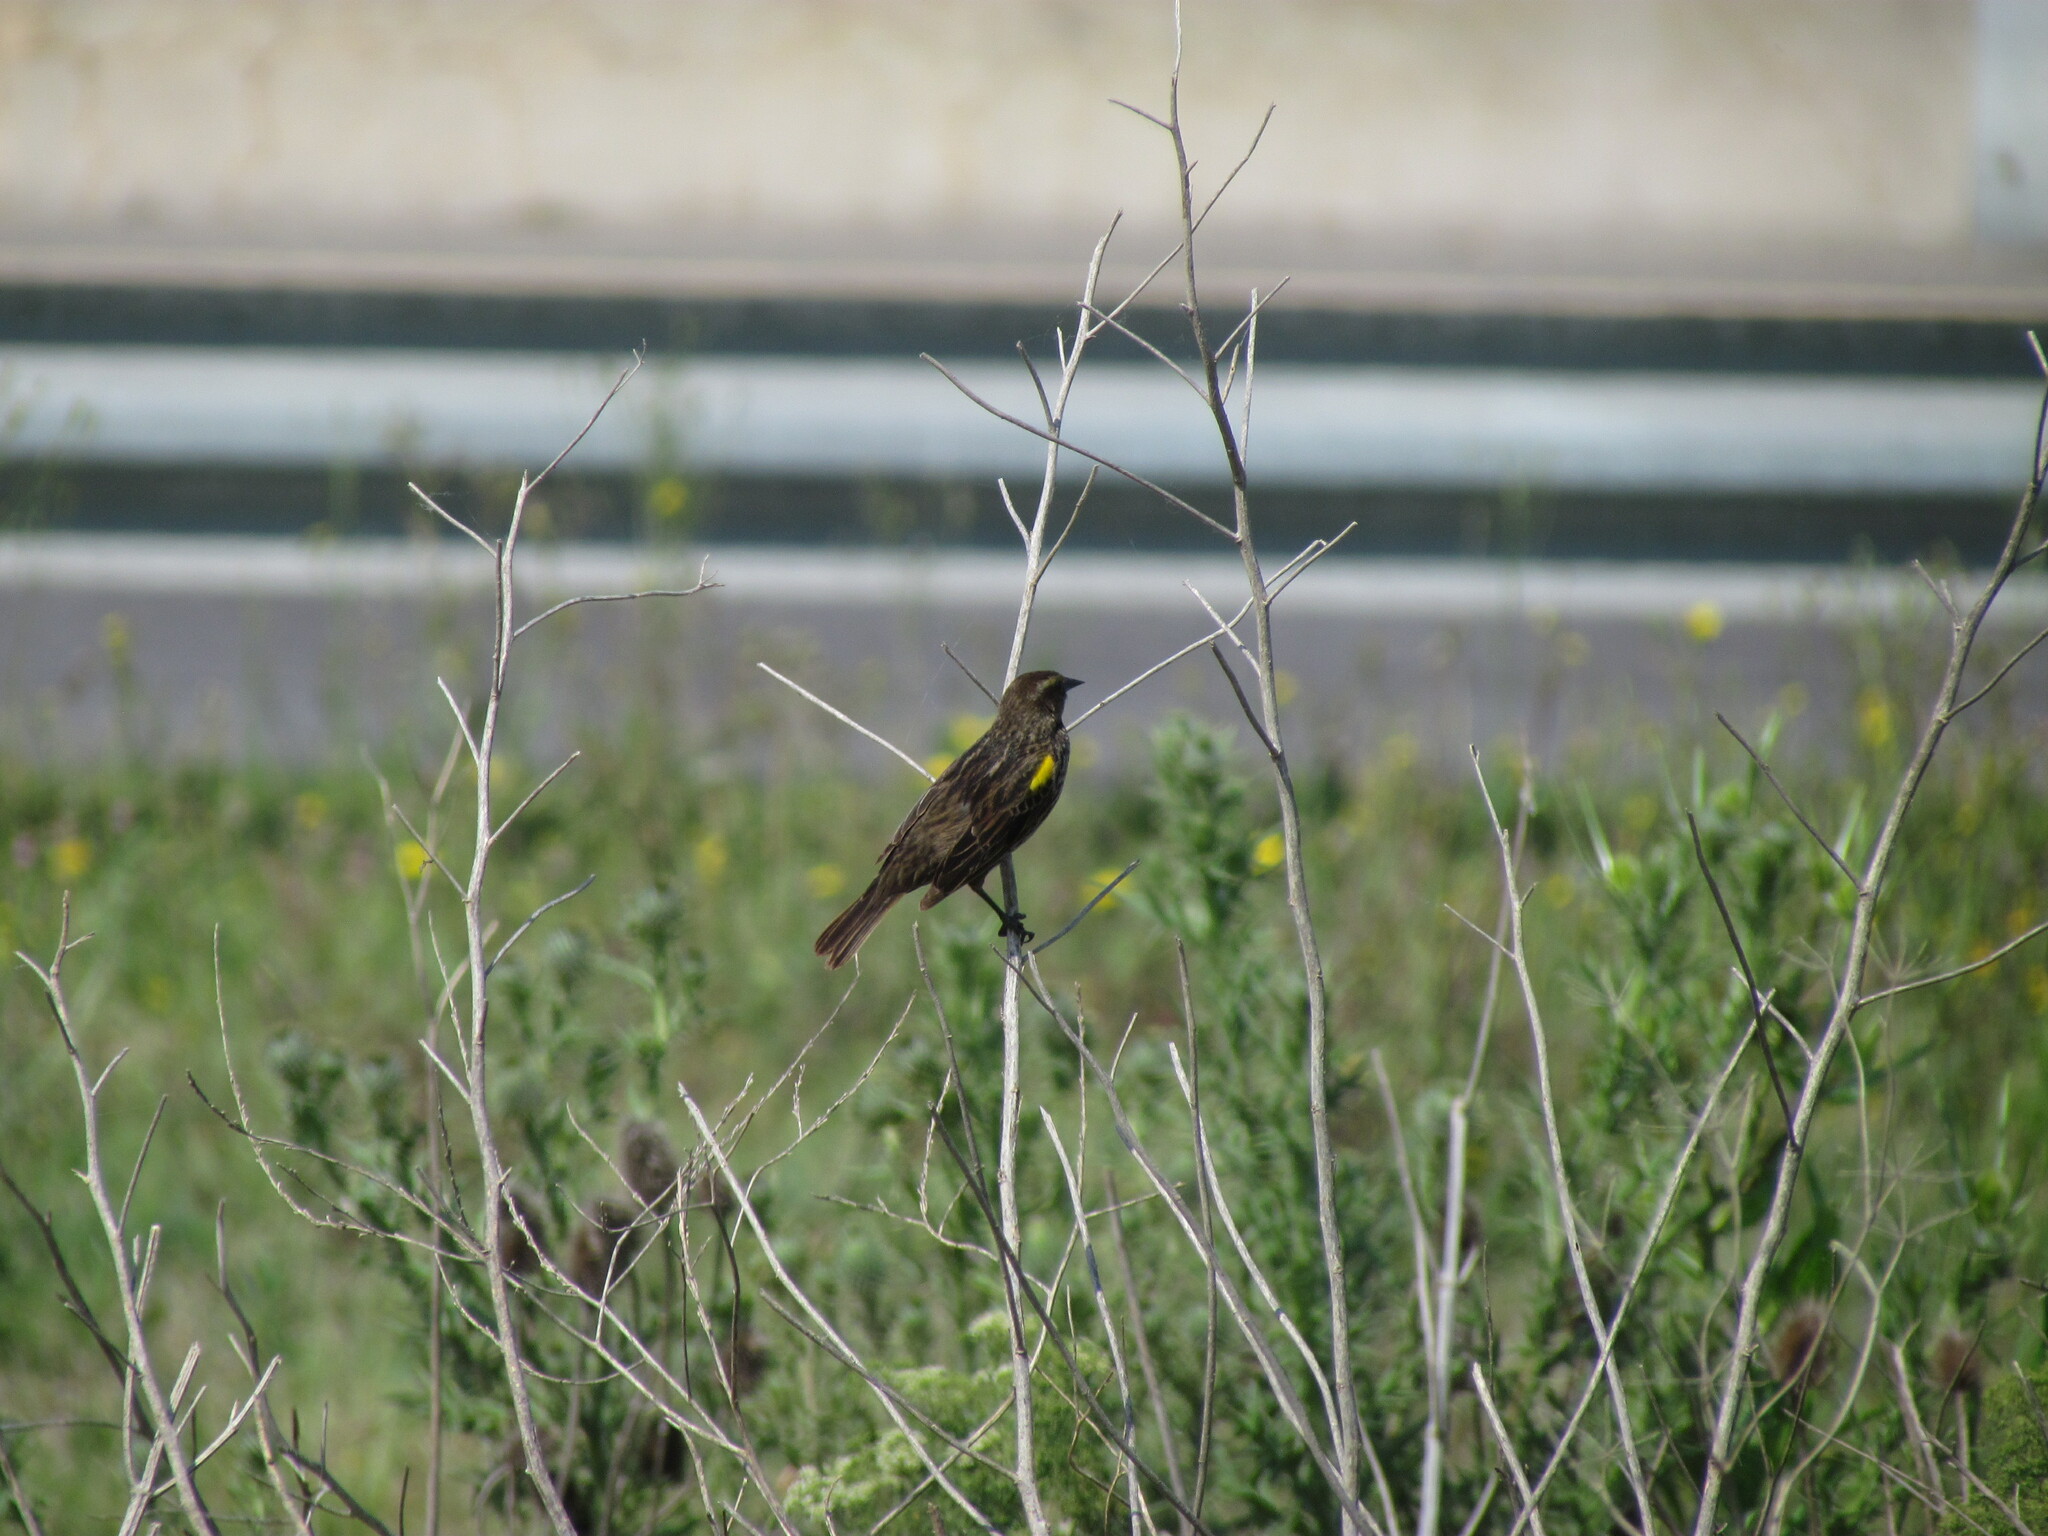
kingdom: Animalia
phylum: Chordata
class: Aves
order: Passeriformes
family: Icteridae
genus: Agelasticus
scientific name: Agelasticus thilius
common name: Yellow-winged blackbird
